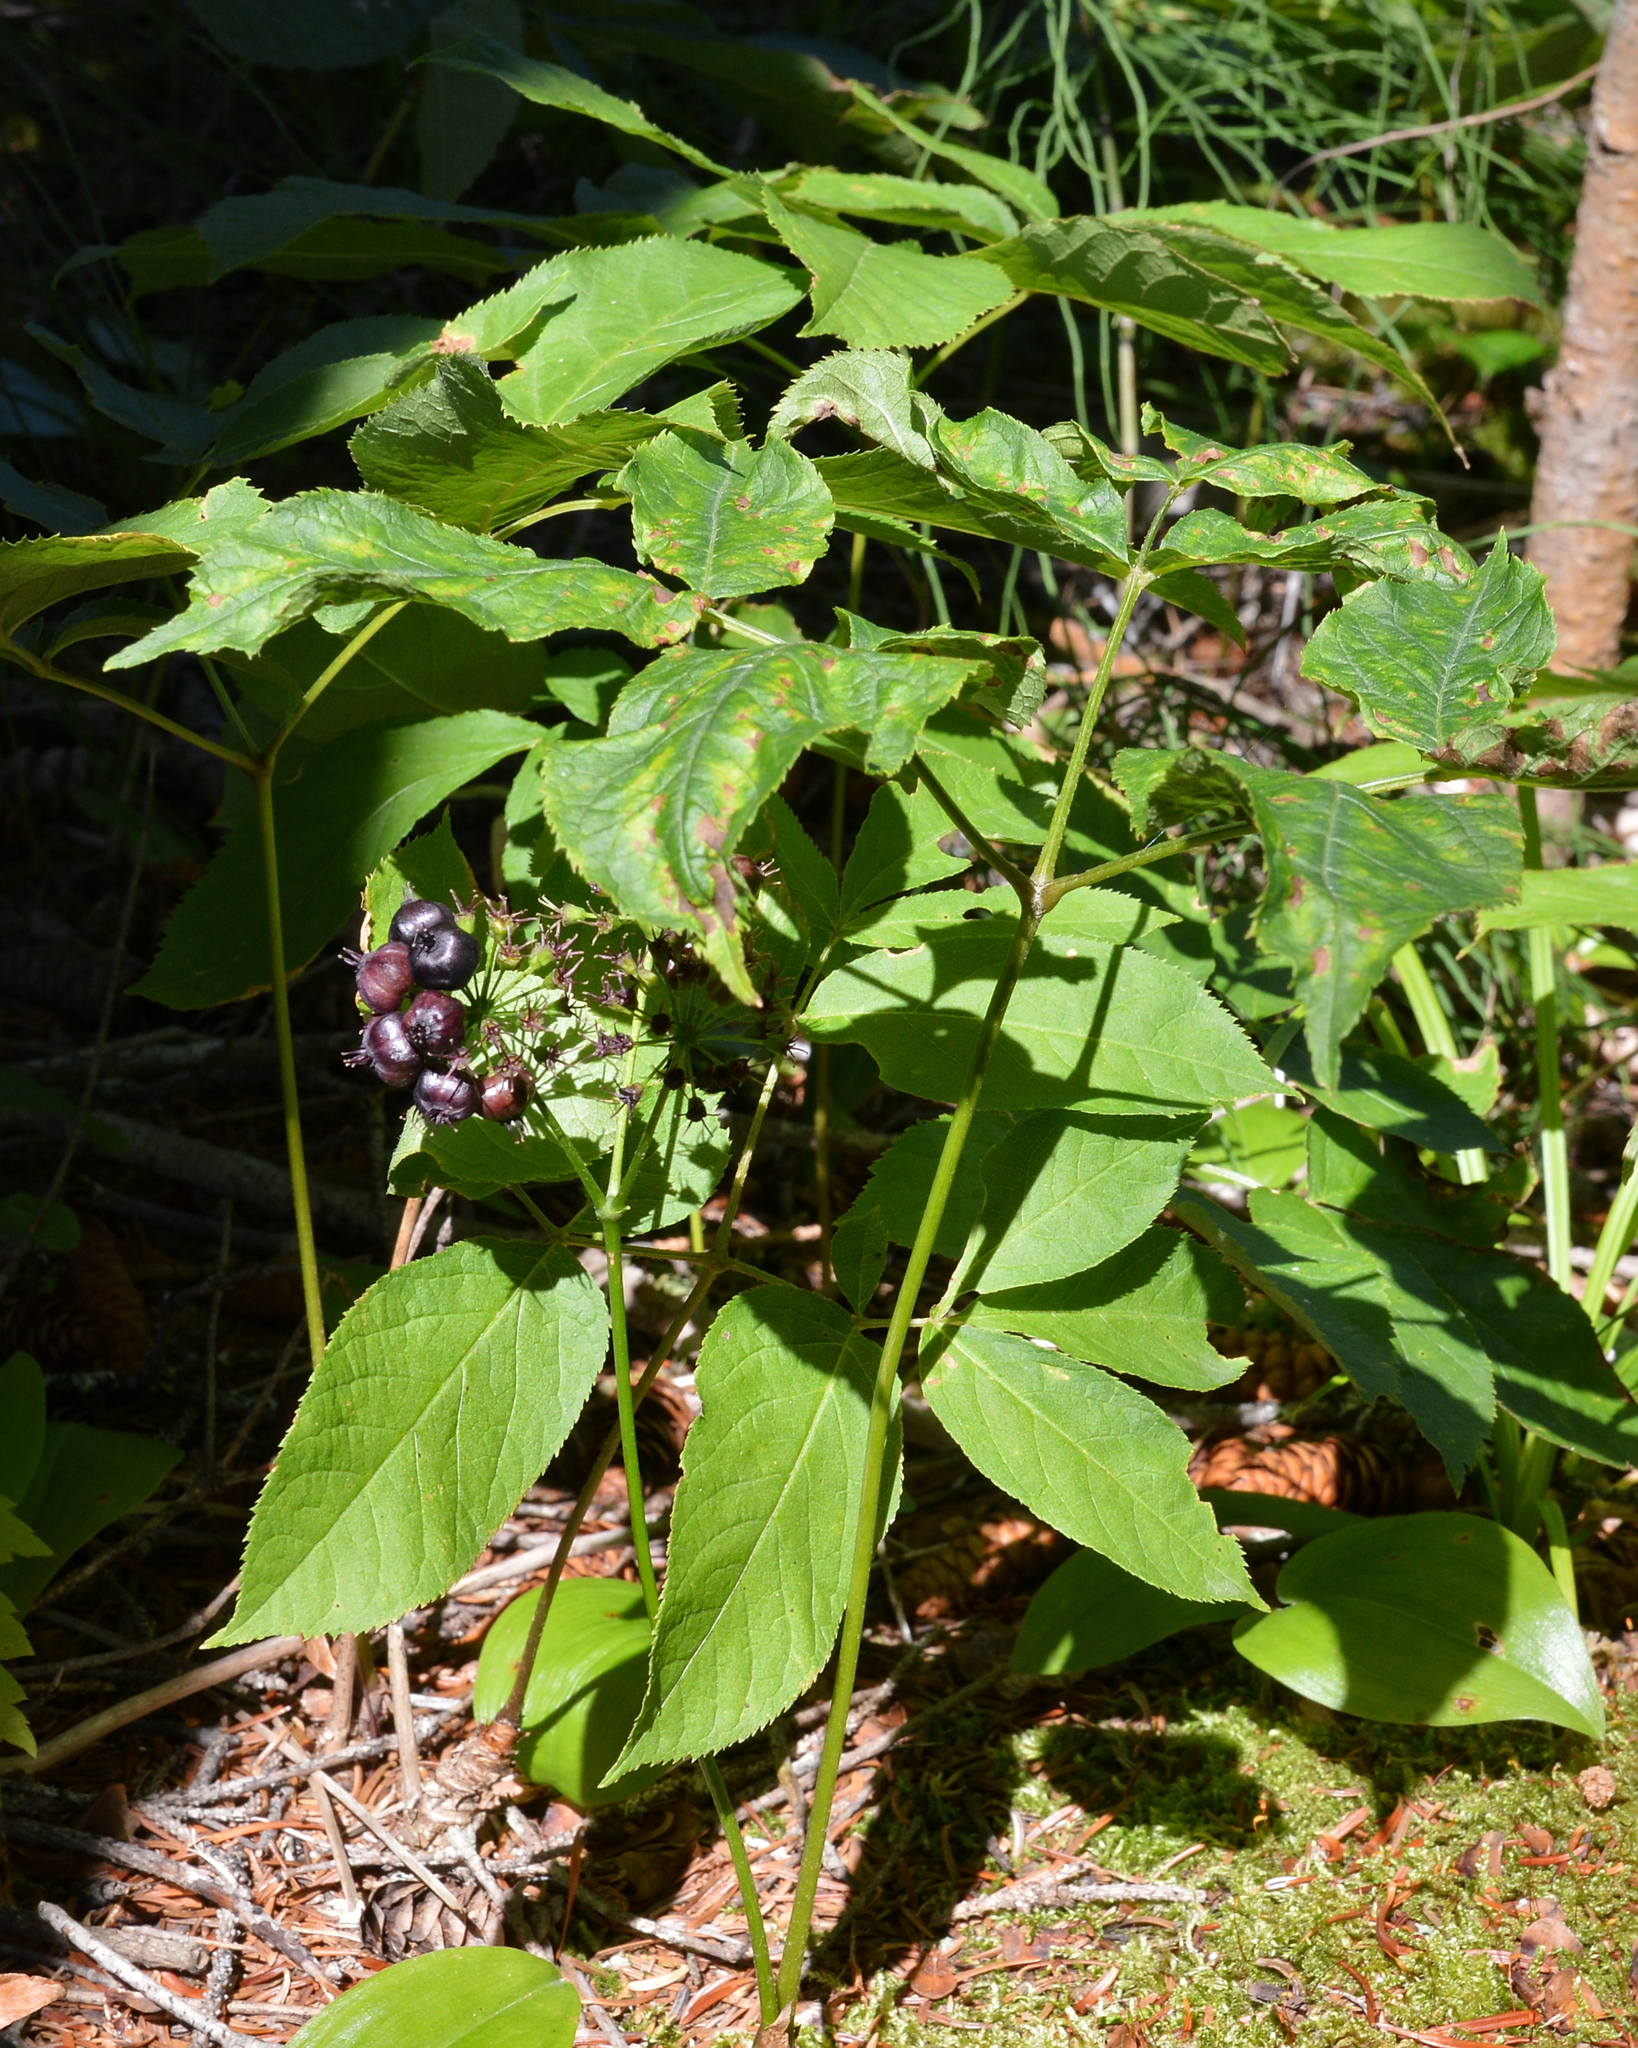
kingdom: Plantae
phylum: Tracheophyta
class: Magnoliopsida
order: Apiales
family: Araliaceae
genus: Aralia
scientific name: Aralia nudicaulis
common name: Wild sarsaparilla
